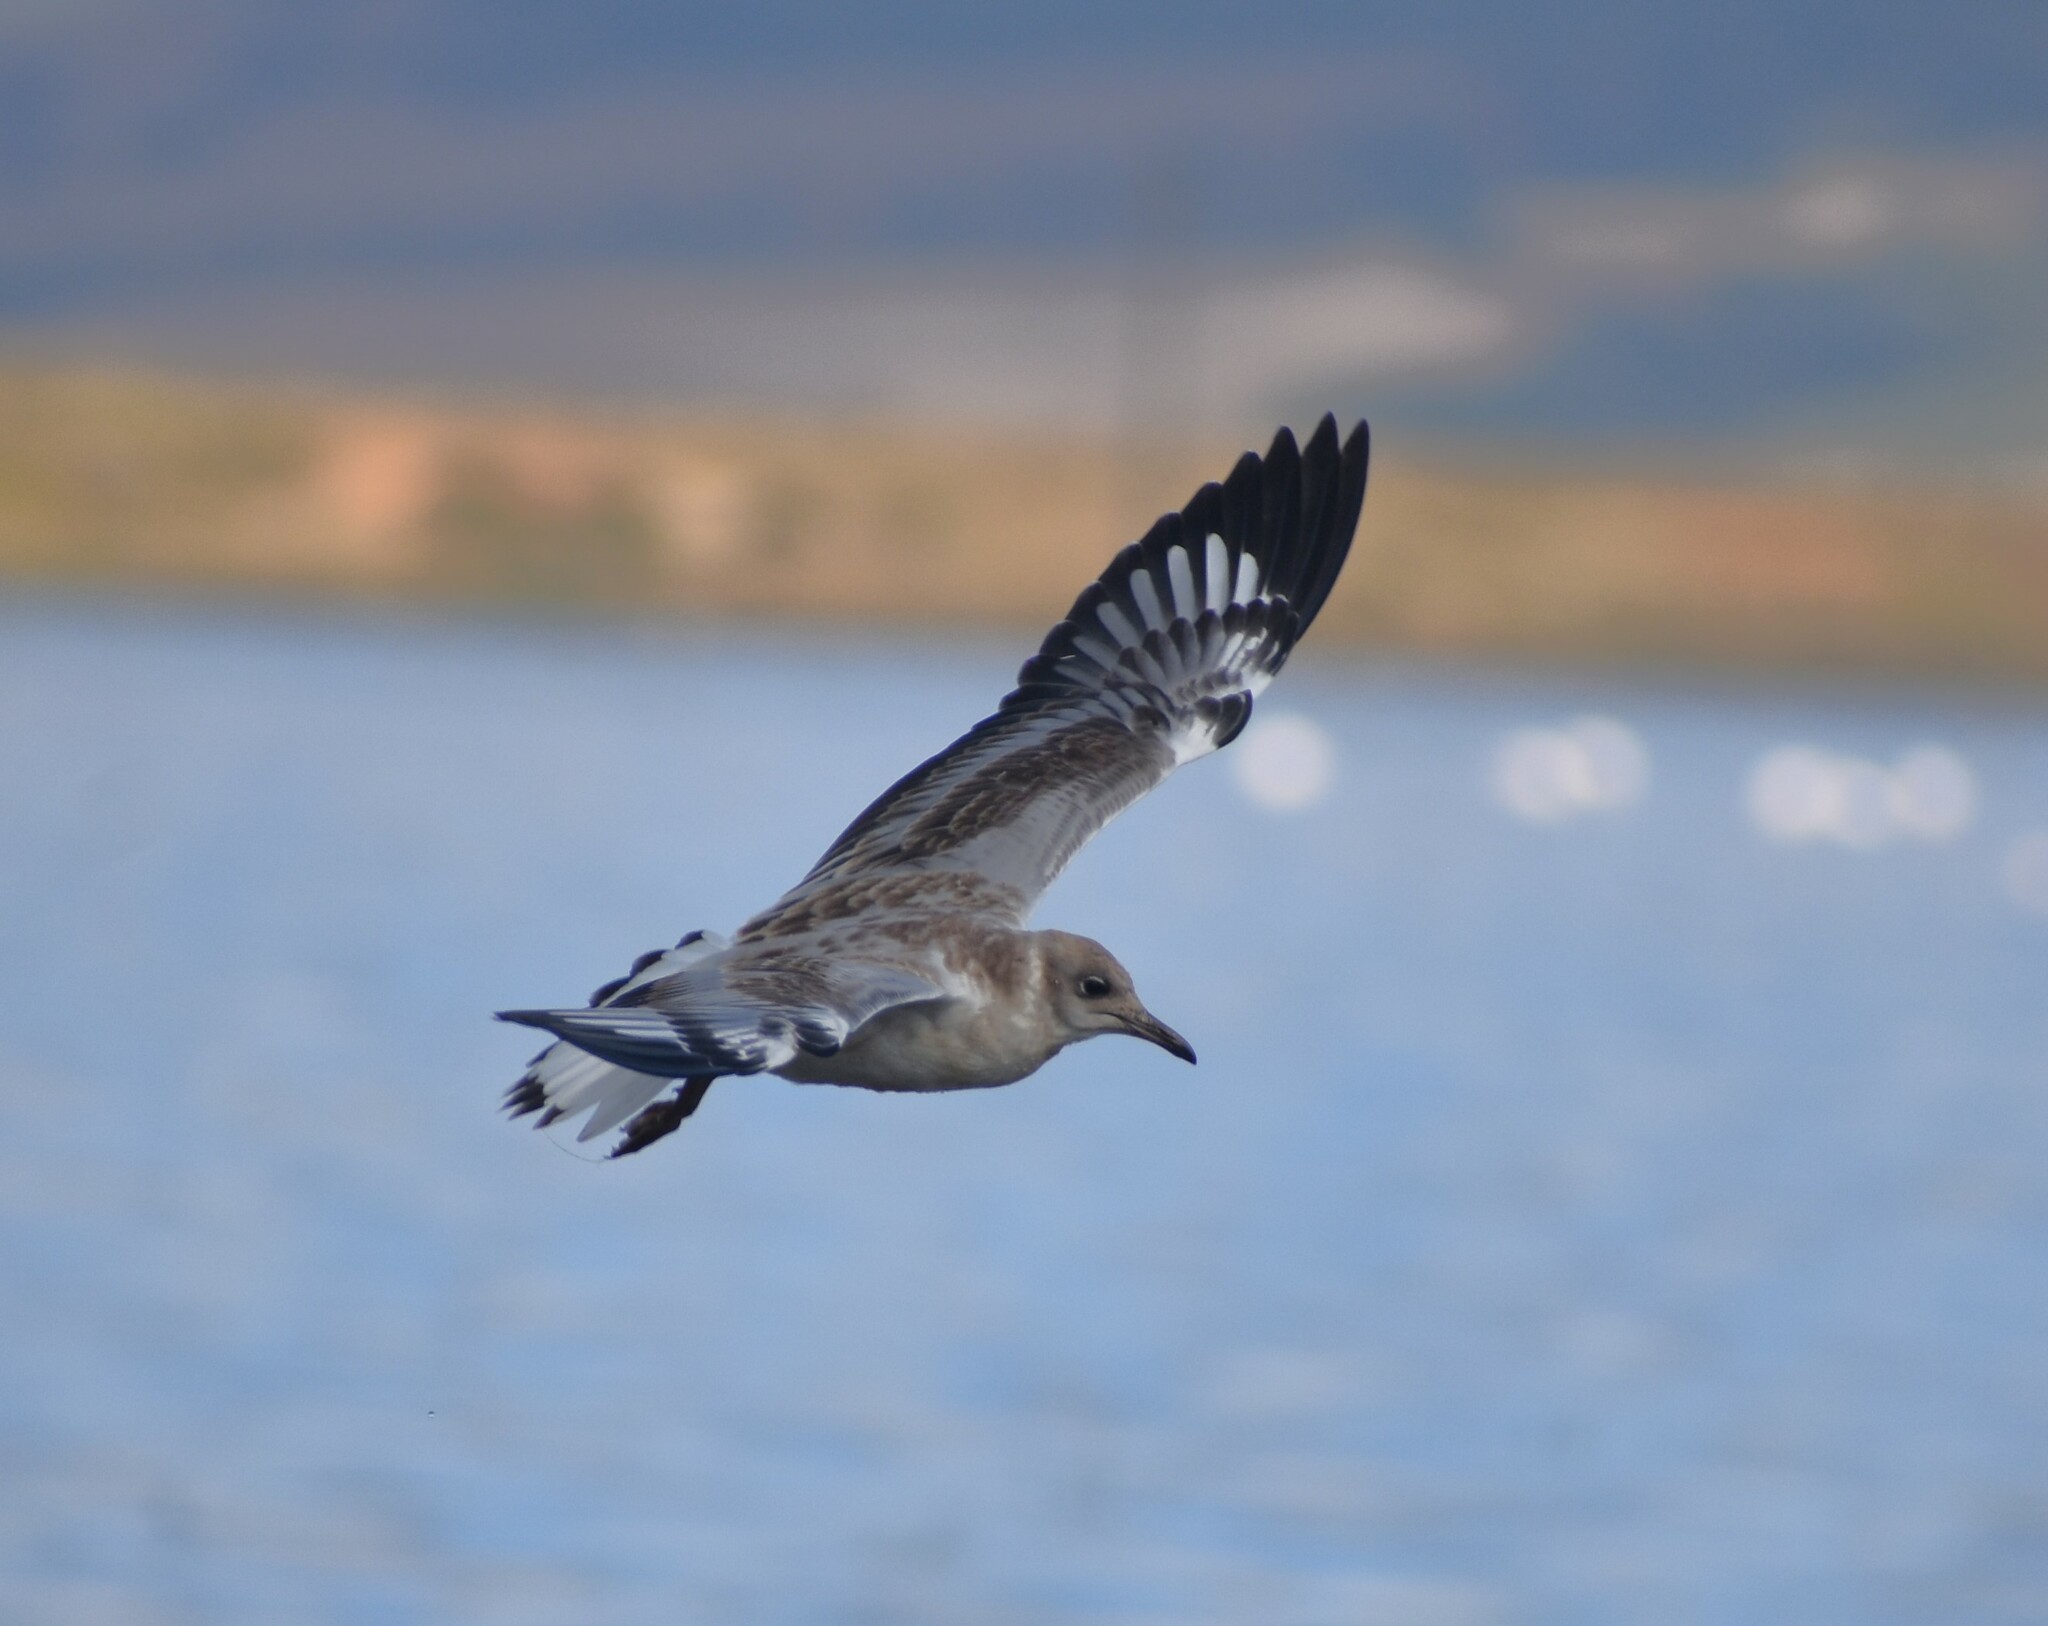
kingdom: Animalia
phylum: Chordata
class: Aves
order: Charadriiformes
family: Laridae
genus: Chroicocephalus
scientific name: Chroicocephalus cirrocephalus
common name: Grey-headed gull
